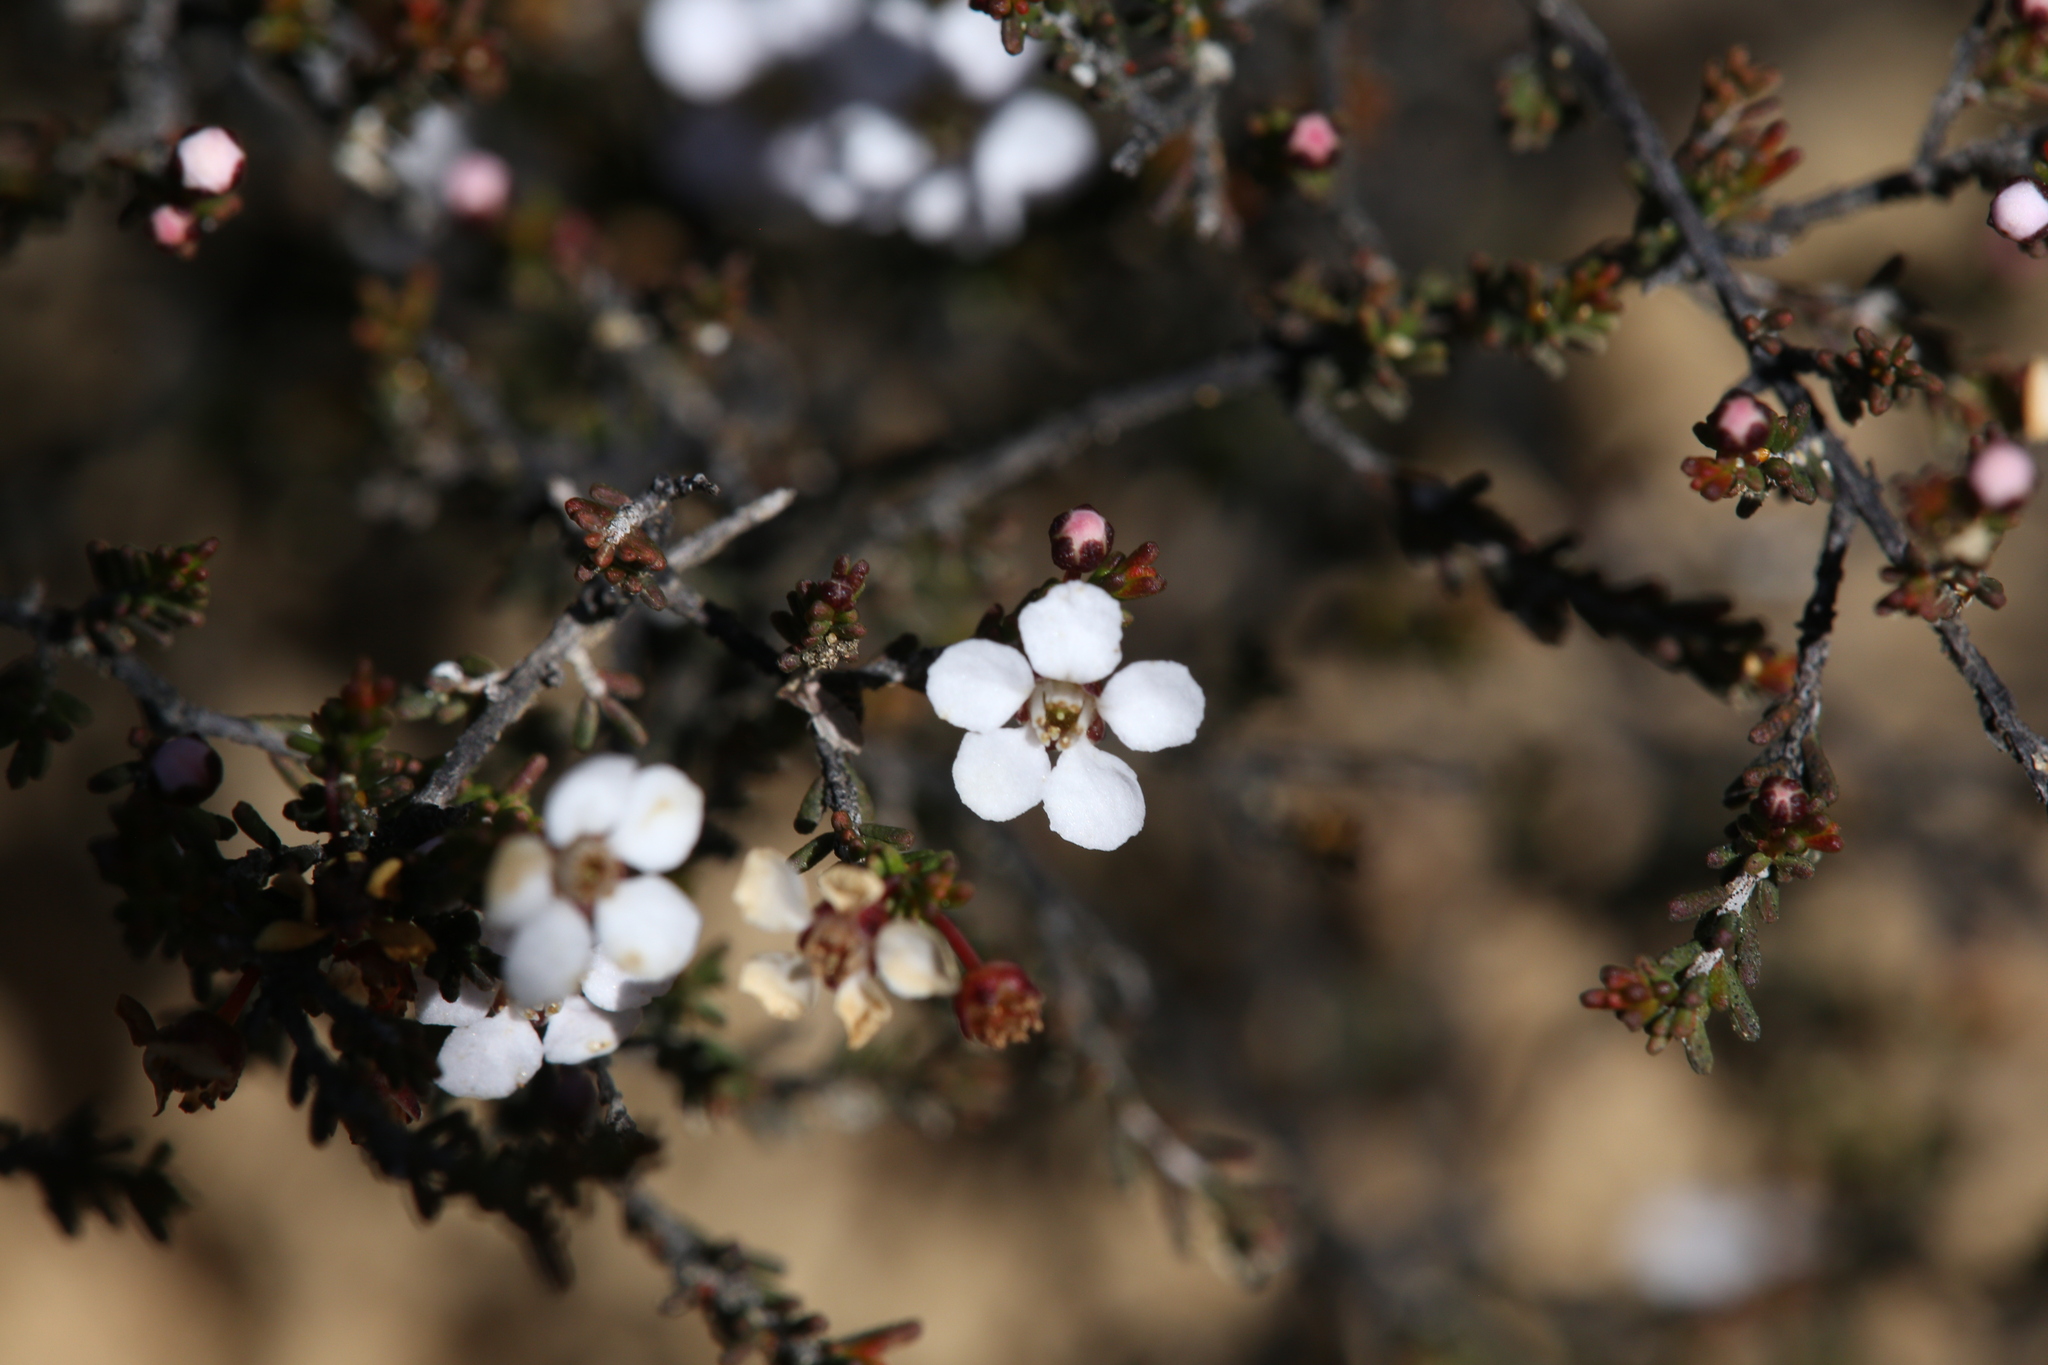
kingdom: Plantae
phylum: Tracheophyta
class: Magnoliopsida
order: Myrtales
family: Myrtaceae
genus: Rinzia
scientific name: Rinzia communis
